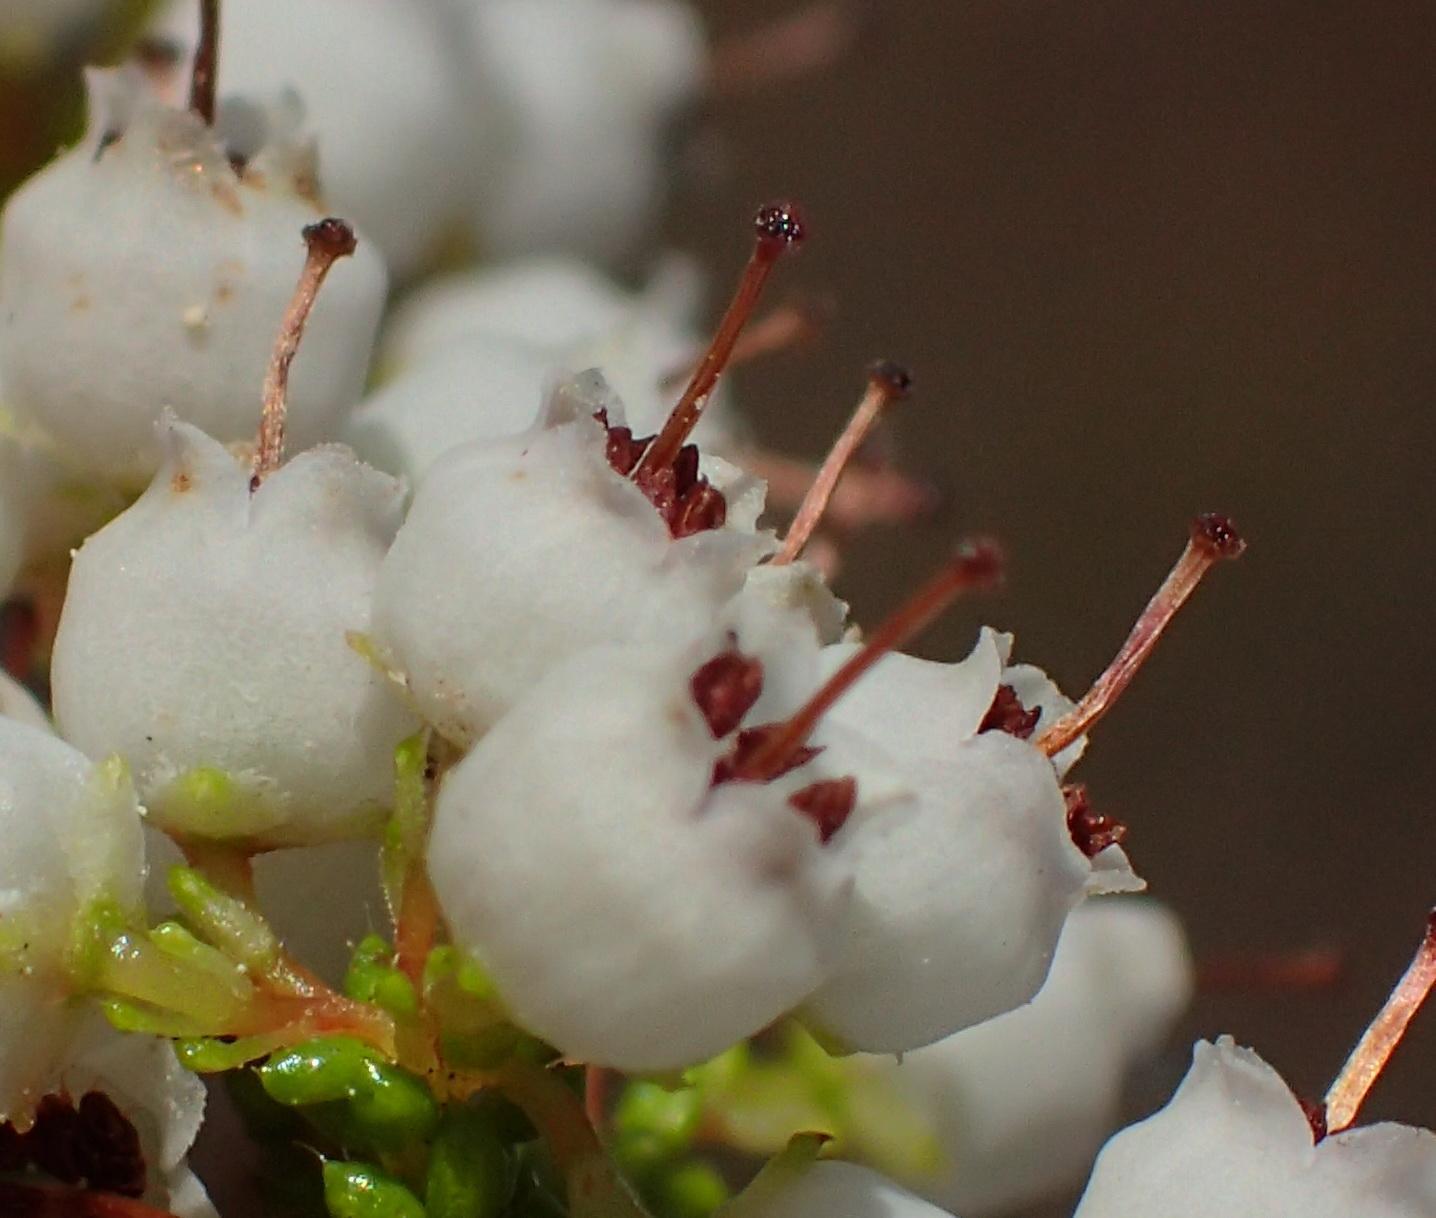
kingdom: Plantae
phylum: Tracheophyta
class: Magnoliopsida
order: Ericales
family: Ericaceae
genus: Erica
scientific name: Erica scabriuscula
